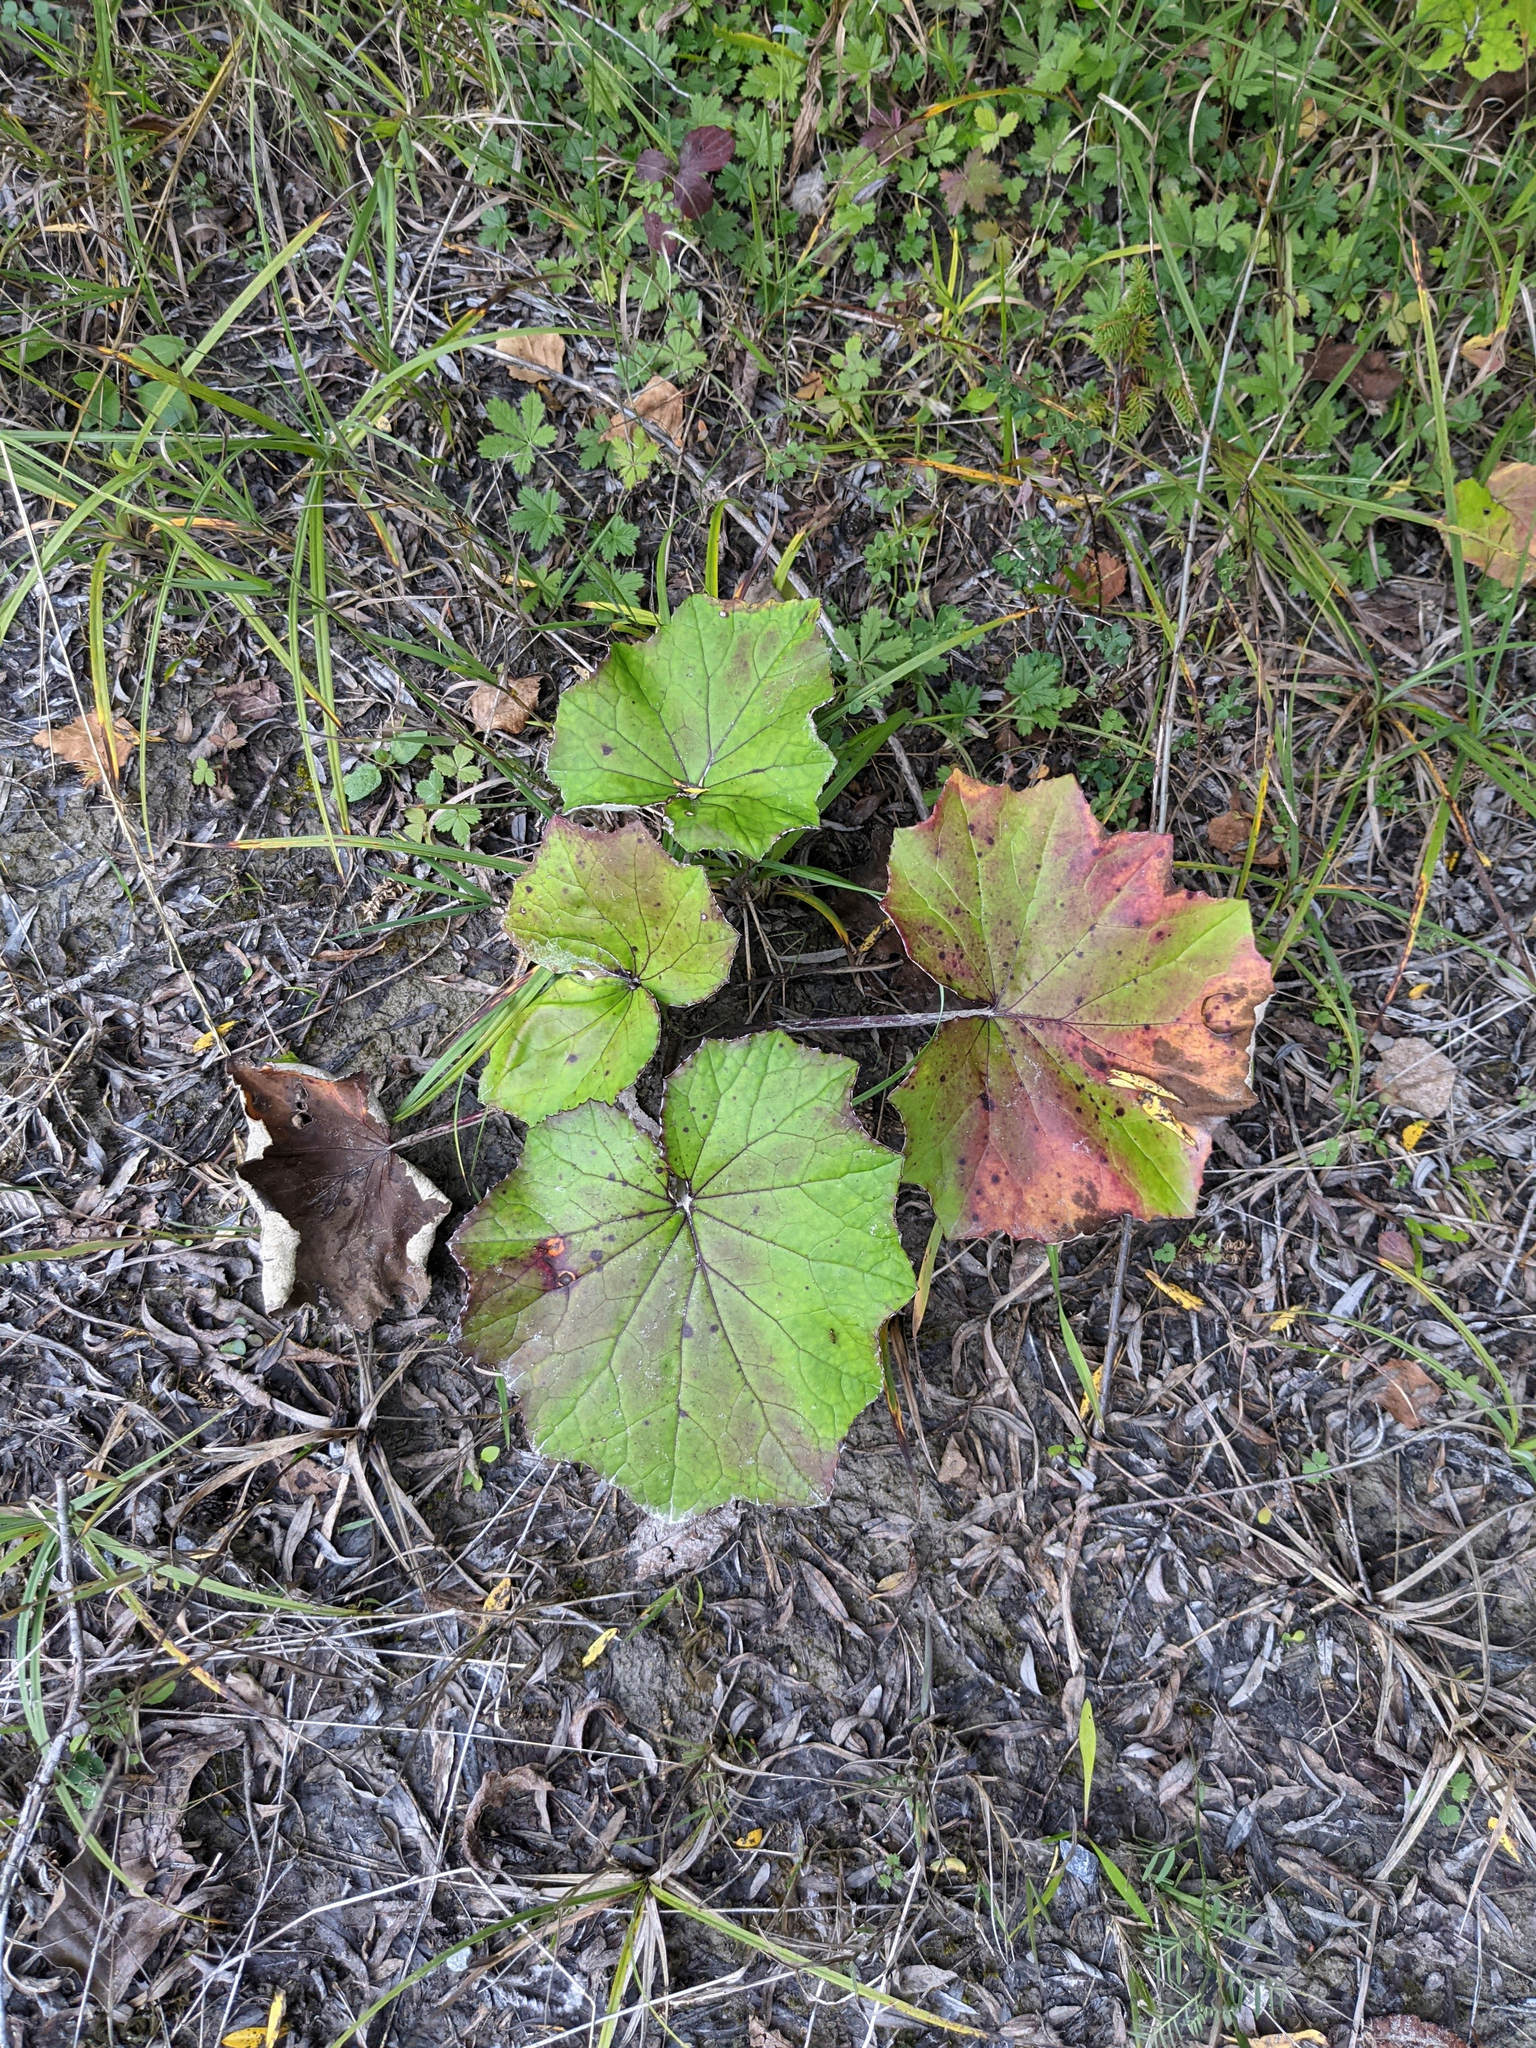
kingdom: Plantae
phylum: Tracheophyta
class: Magnoliopsida
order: Asterales
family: Asteraceae
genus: Tussilago
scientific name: Tussilago farfara
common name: Coltsfoot
